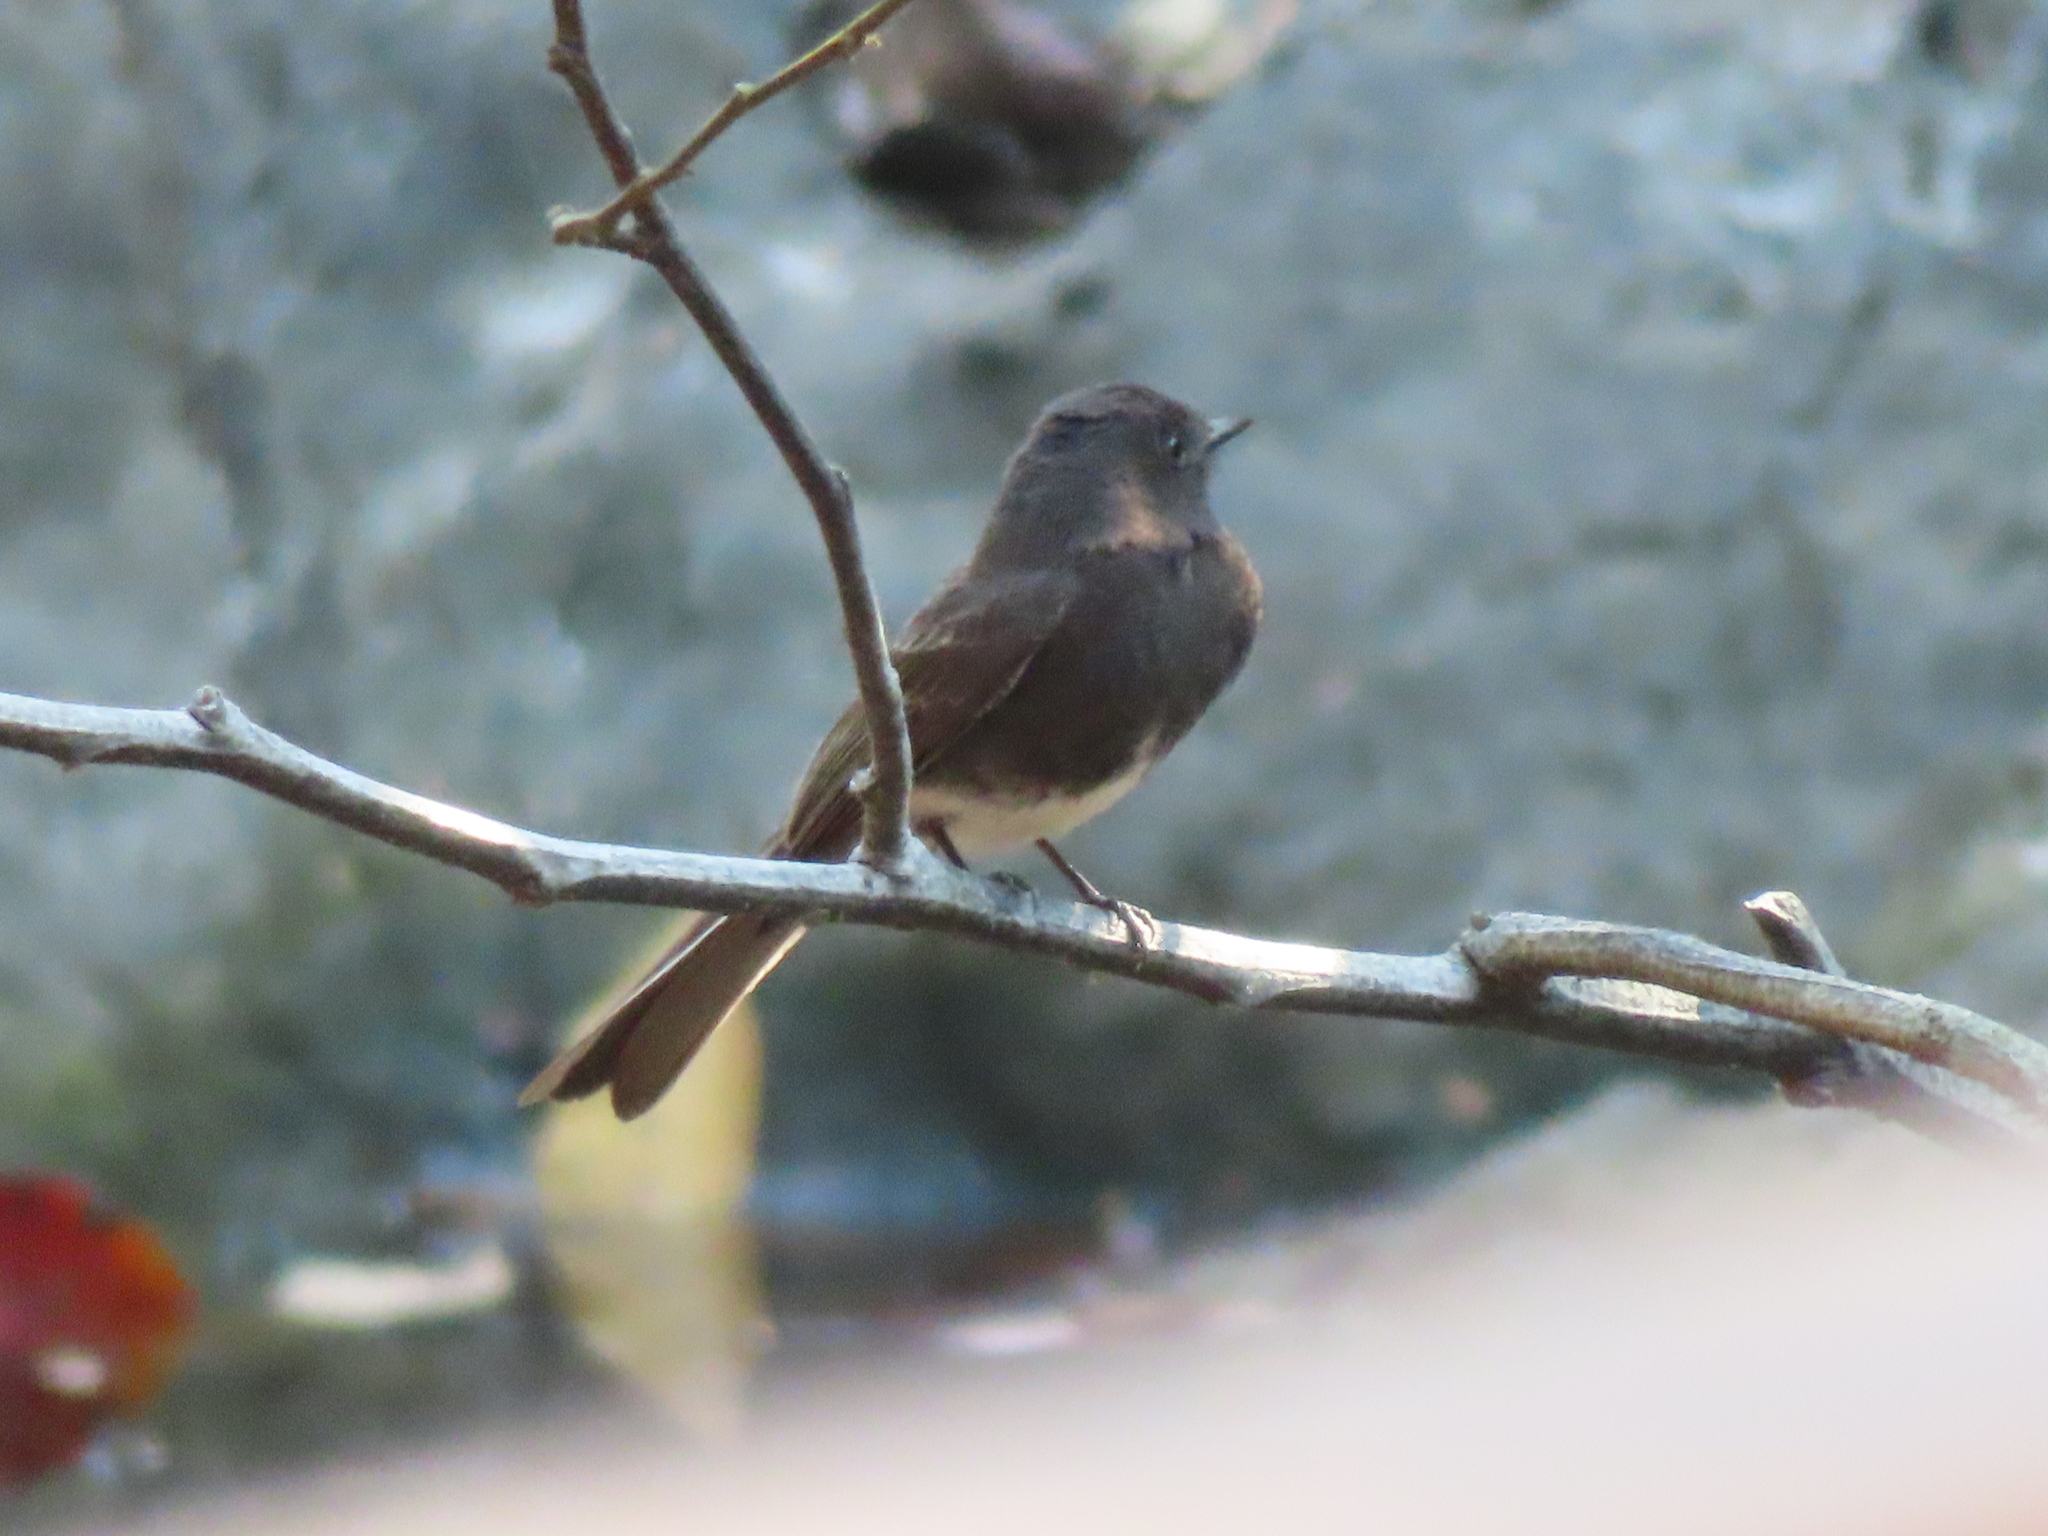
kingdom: Animalia
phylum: Chordata
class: Aves
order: Passeriformes
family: Tyrannidae
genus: Sayornis
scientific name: Sayornis nigricans
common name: Black phoebe
